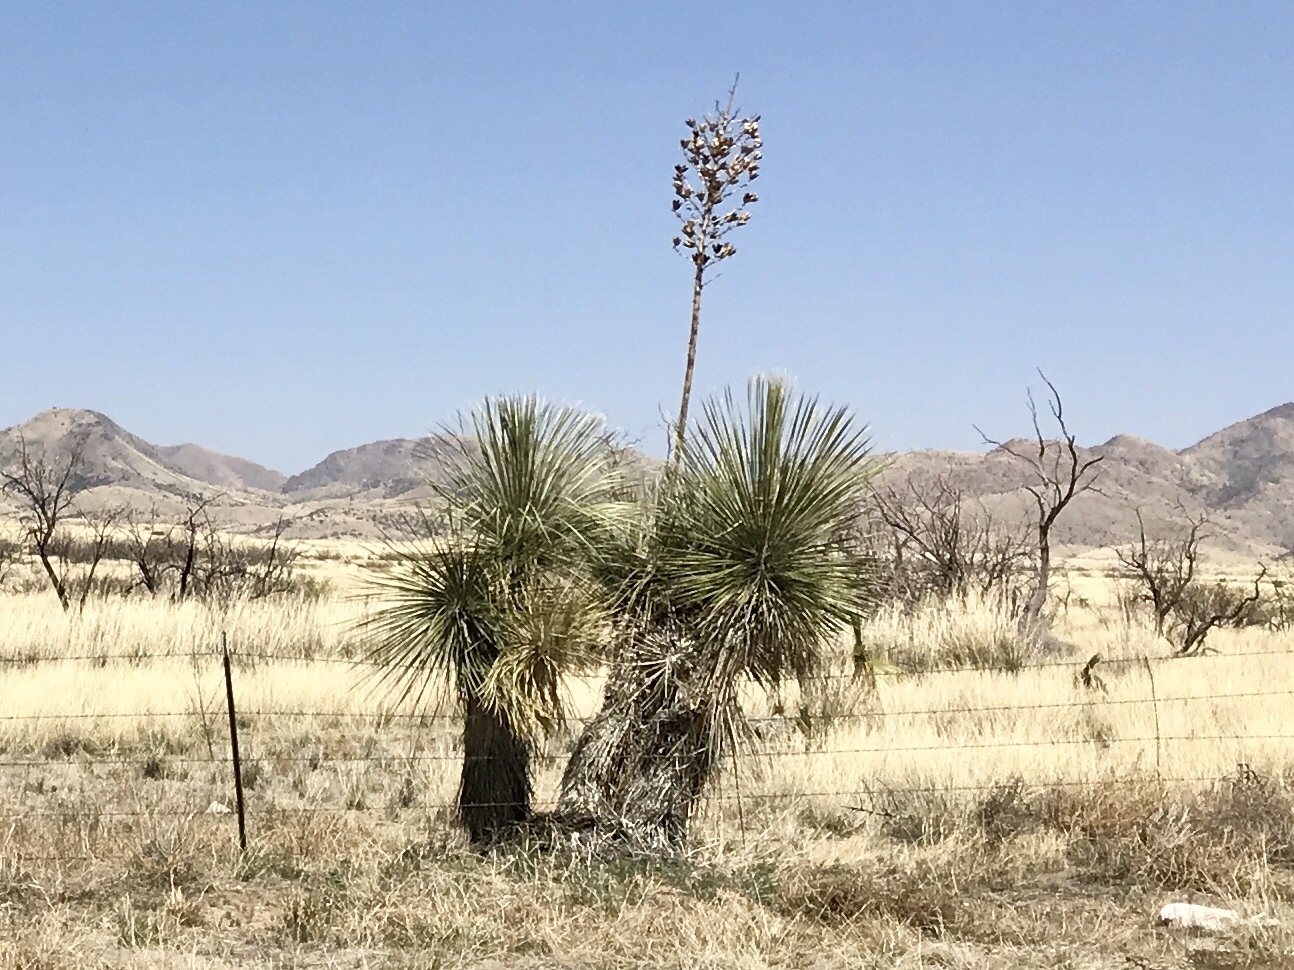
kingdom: Plantae
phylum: Tracheophyta
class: Liliopsida
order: Asparagales
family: Asparagaceae
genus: Yucca
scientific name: Yucca elata
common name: Palmella
